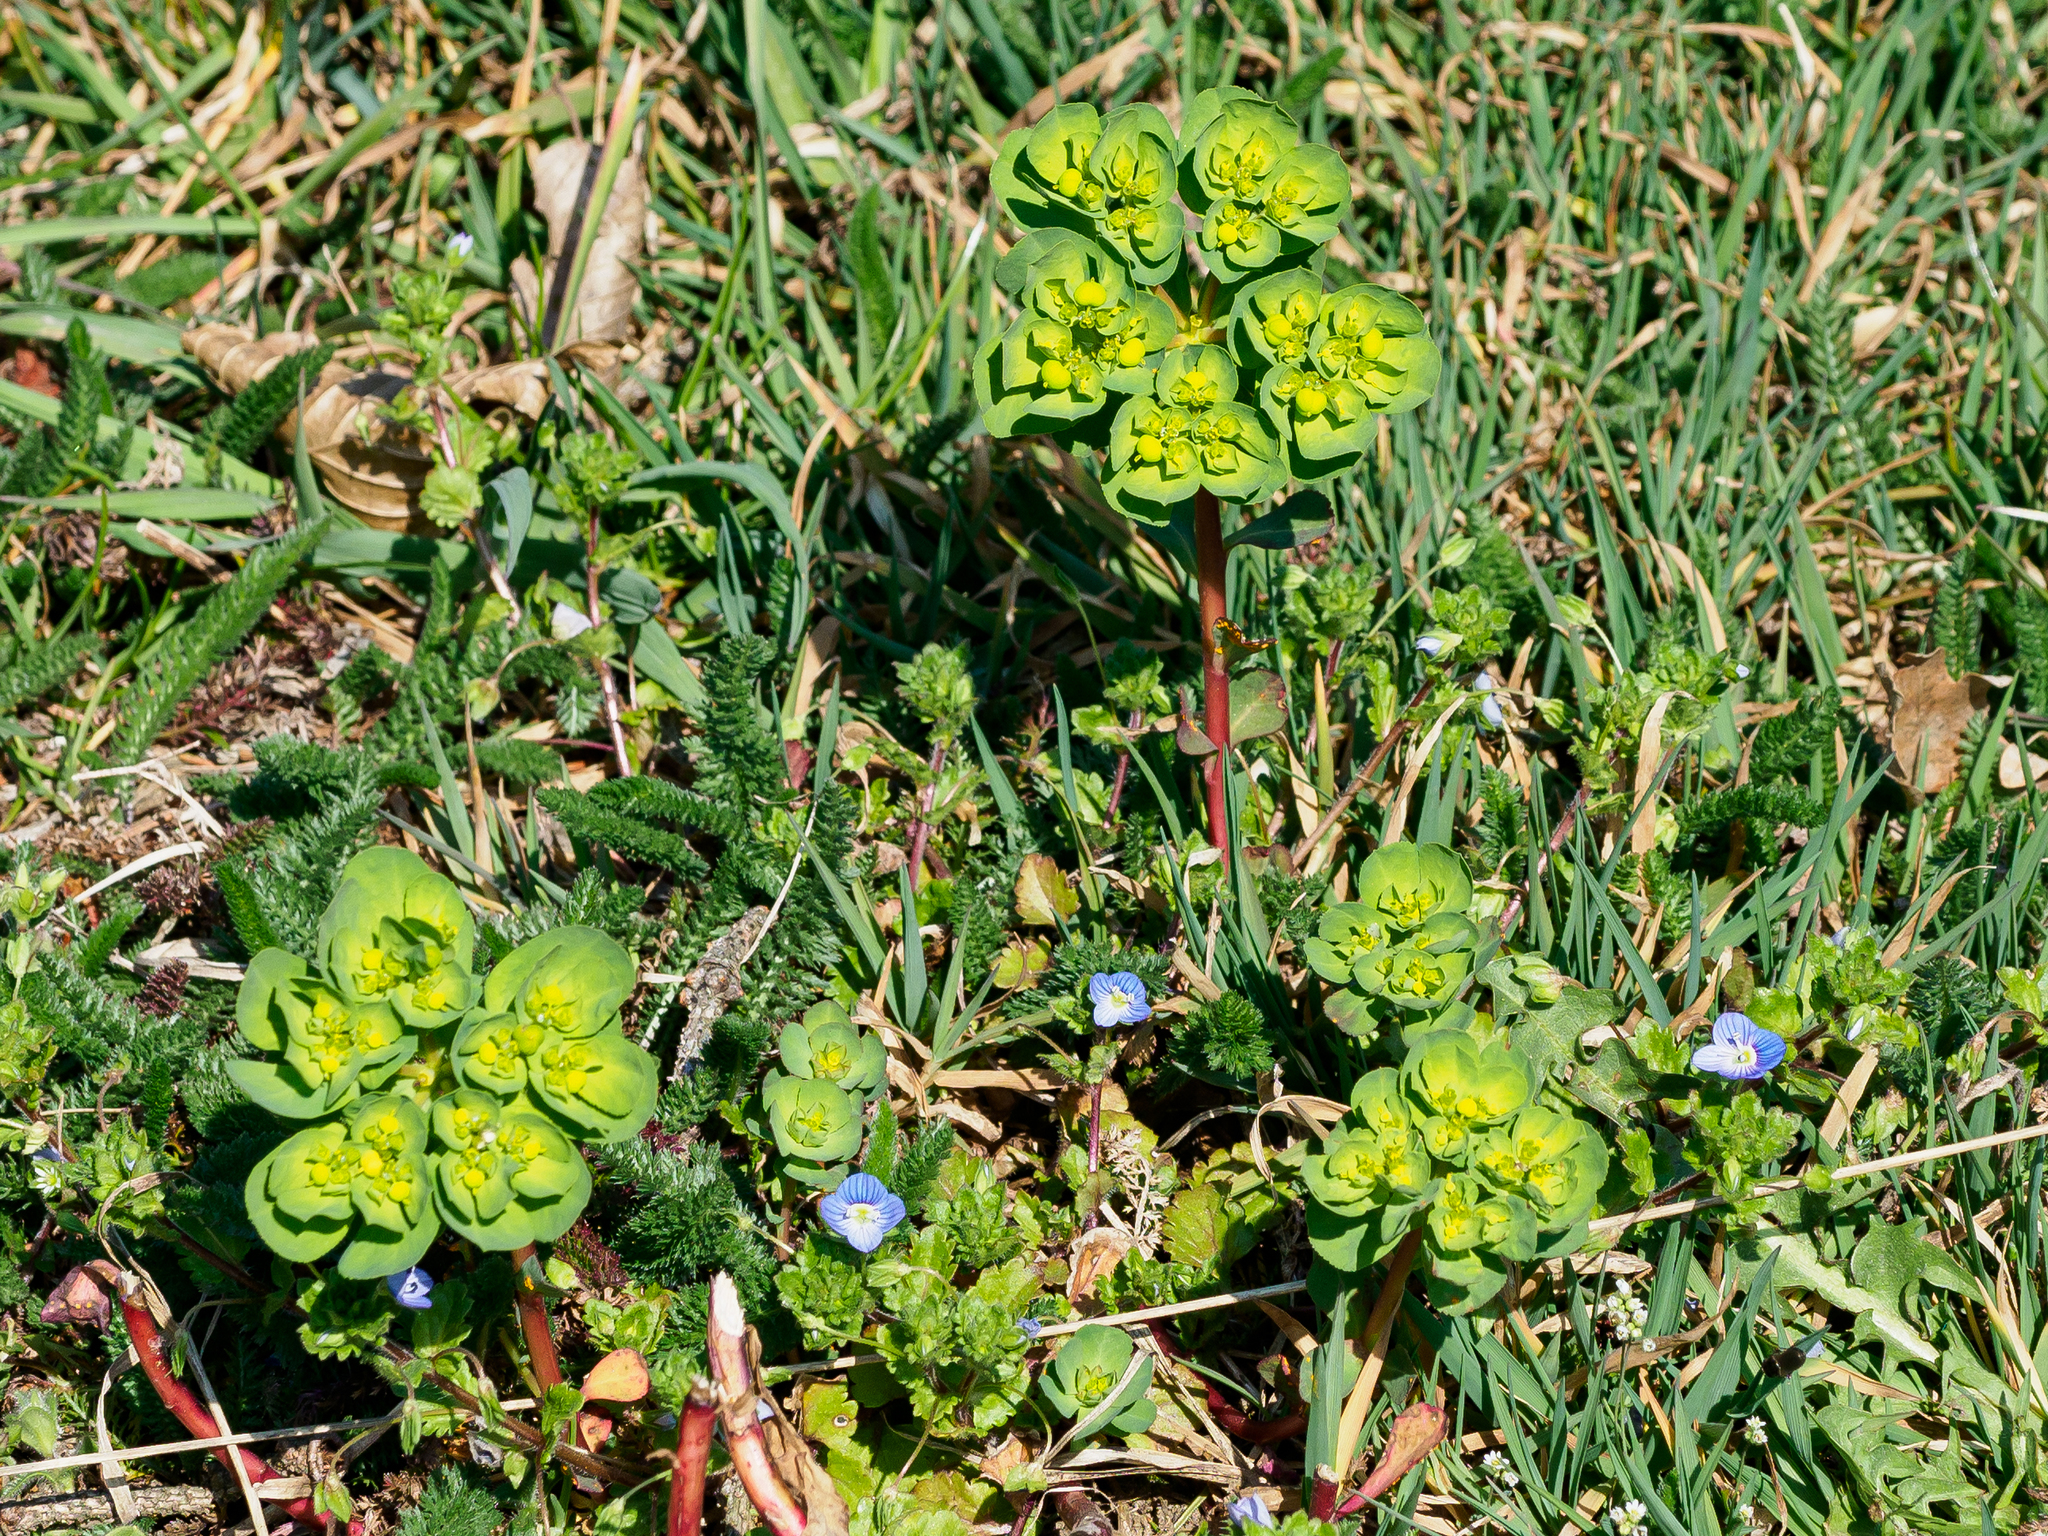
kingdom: Plantae
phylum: Tracheophyta
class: Magnoliopsida
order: Malpighiales
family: Euphorbiaceae
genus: Euphorbia
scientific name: Euphorbia helioscopia
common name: Sun spurge
